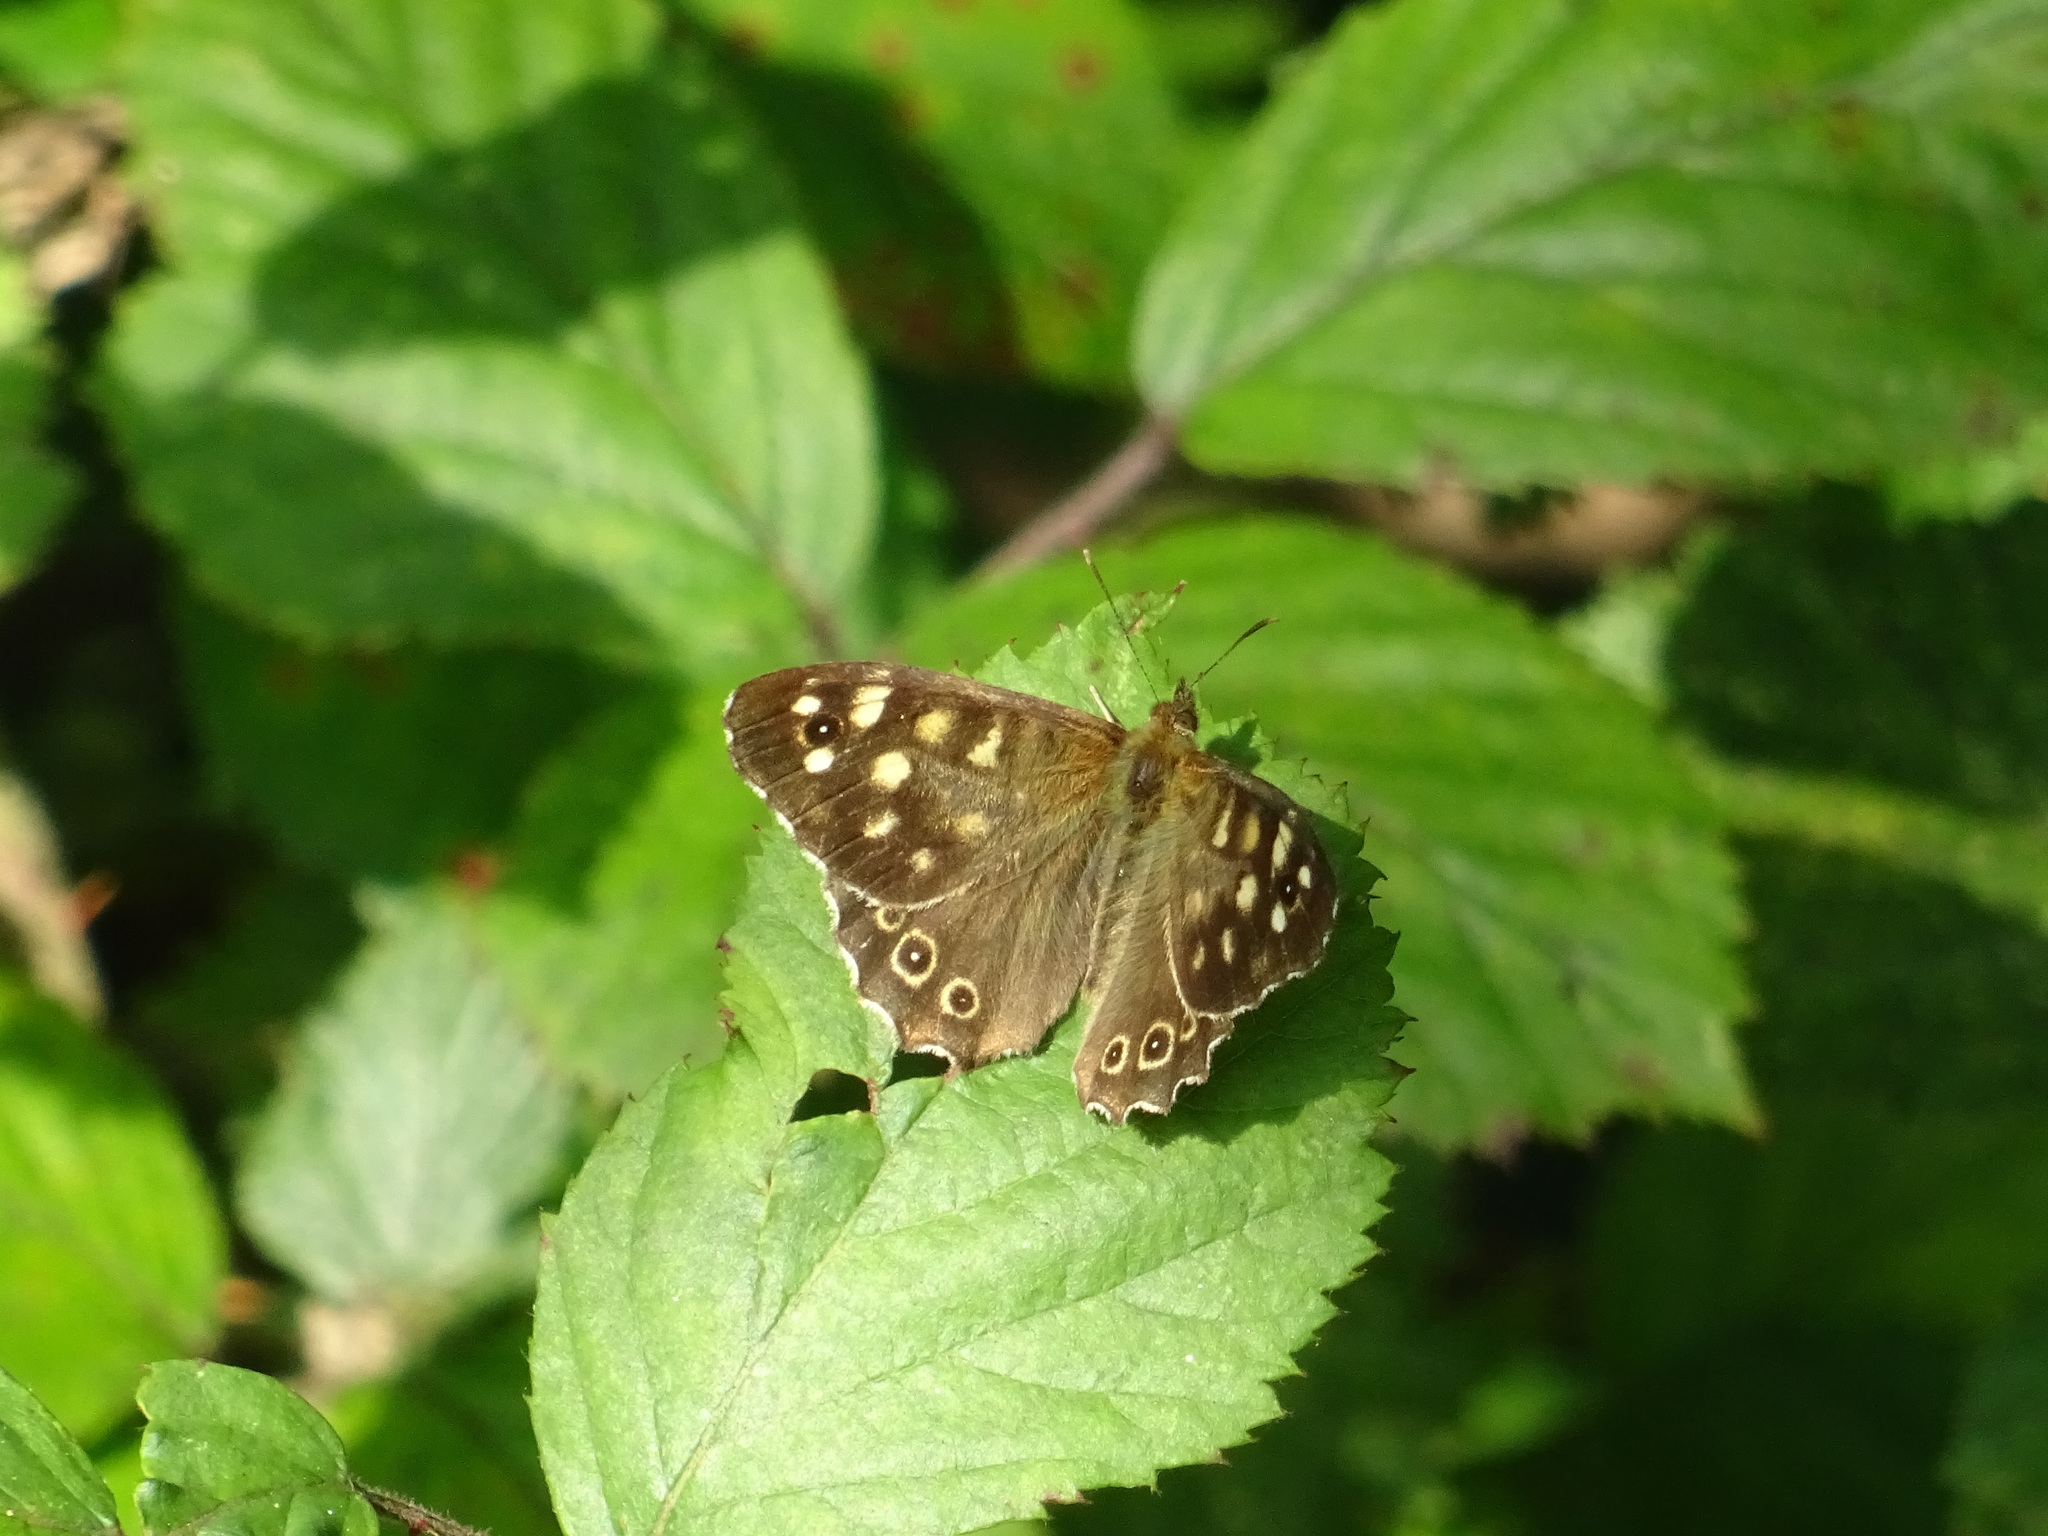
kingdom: Animalia
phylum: Arthropoda
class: Insecta
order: Lepidoptera
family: Nymphalidae
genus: Pararge
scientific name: Pararge aegeria
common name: Speckled wood
